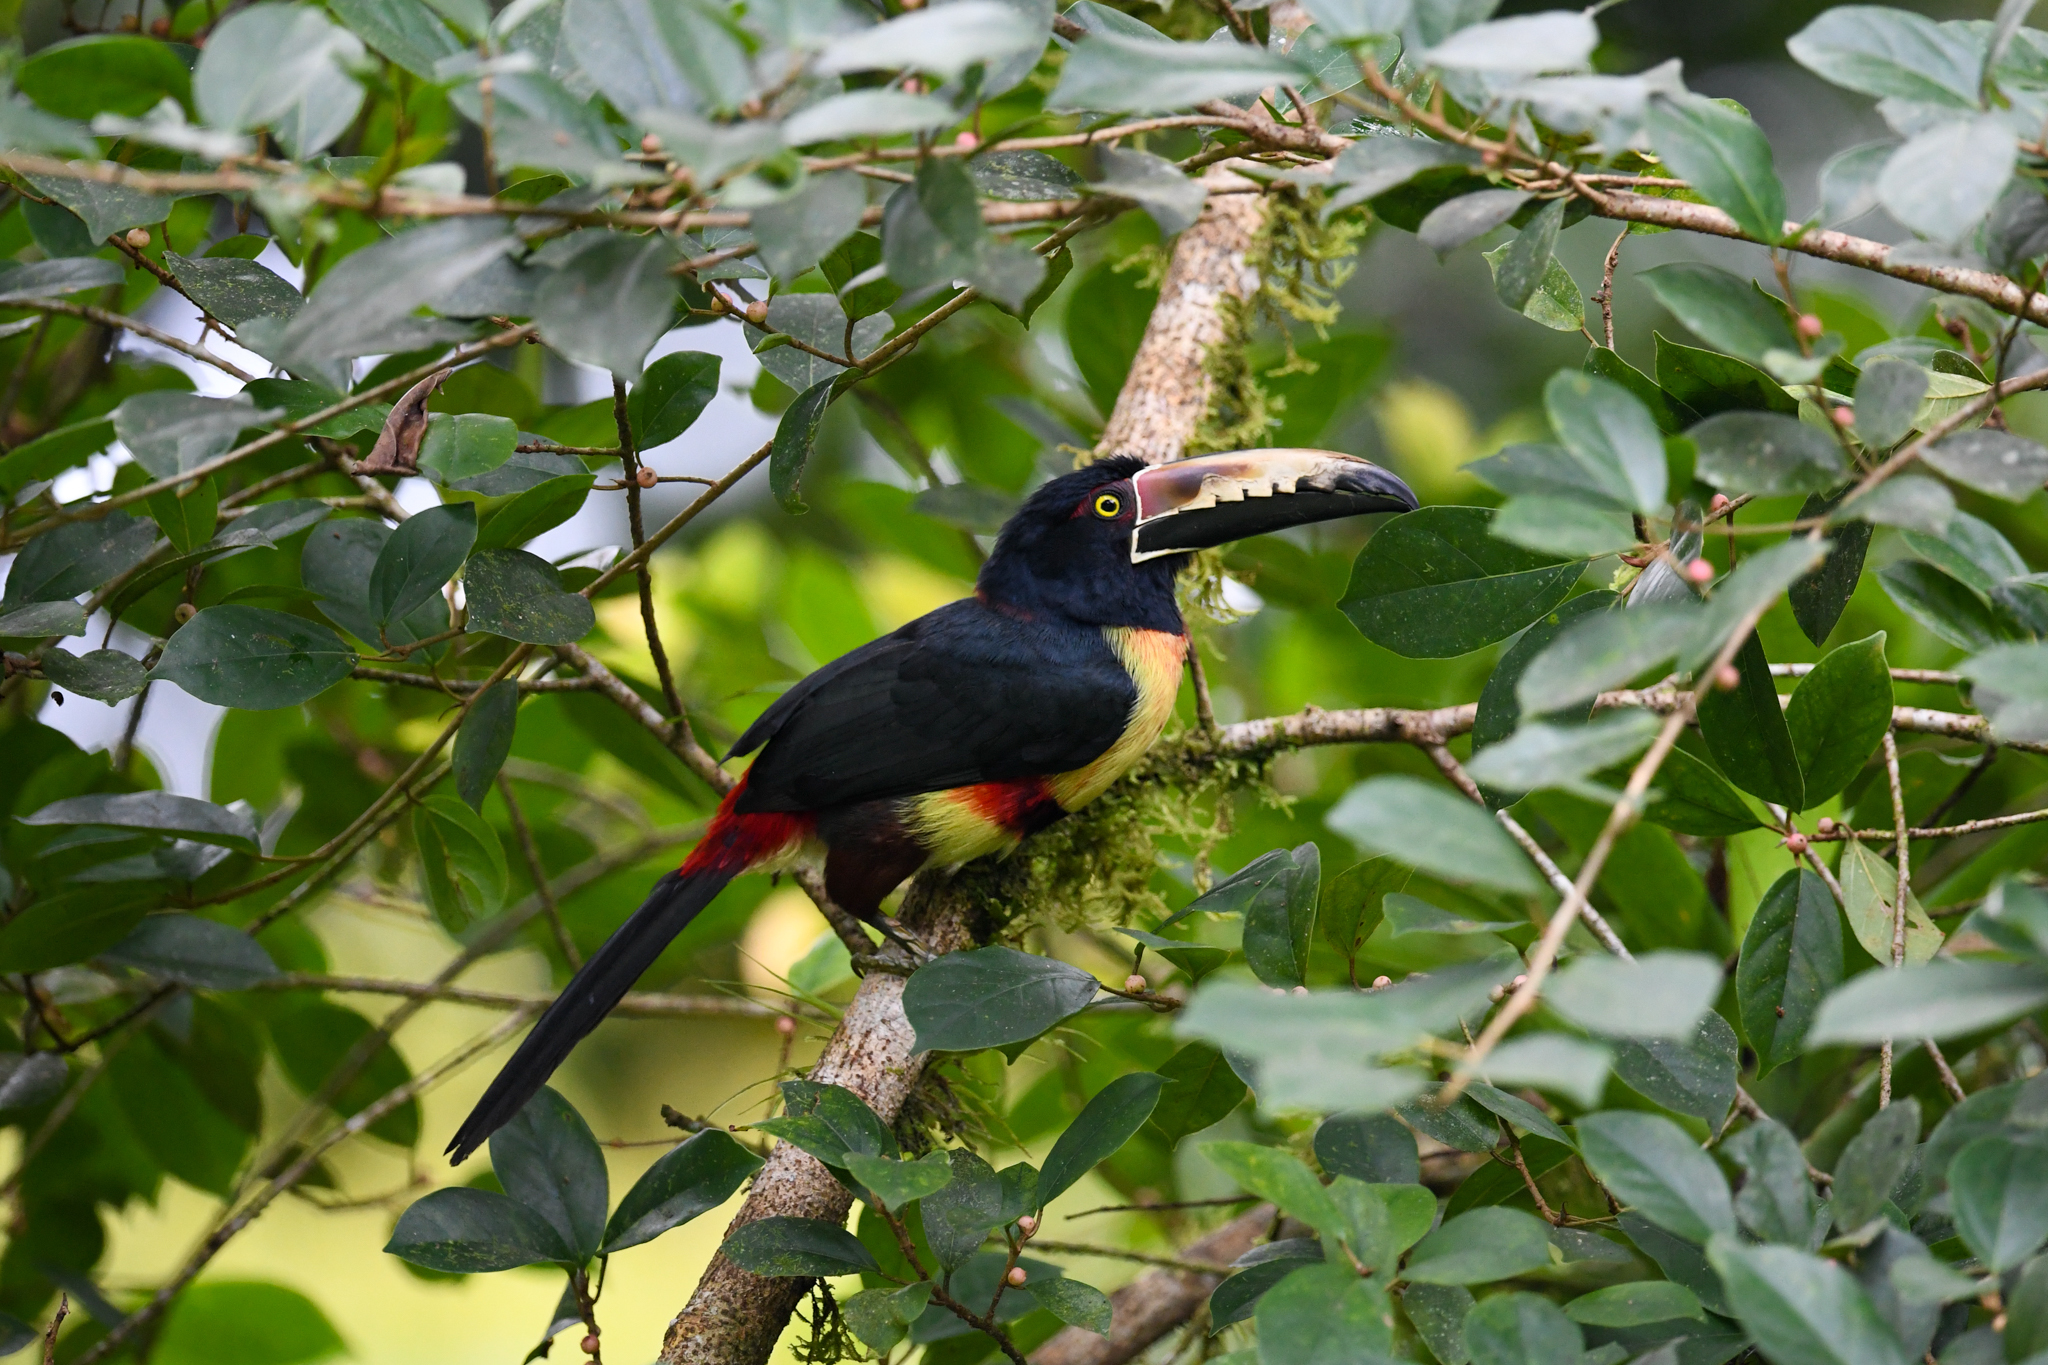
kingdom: Animalia
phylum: Chordata
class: Aves
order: Piciformes
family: Ramphastidae
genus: Pteroglossus
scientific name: Pteroglossus torquatus
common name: Collared aracari
